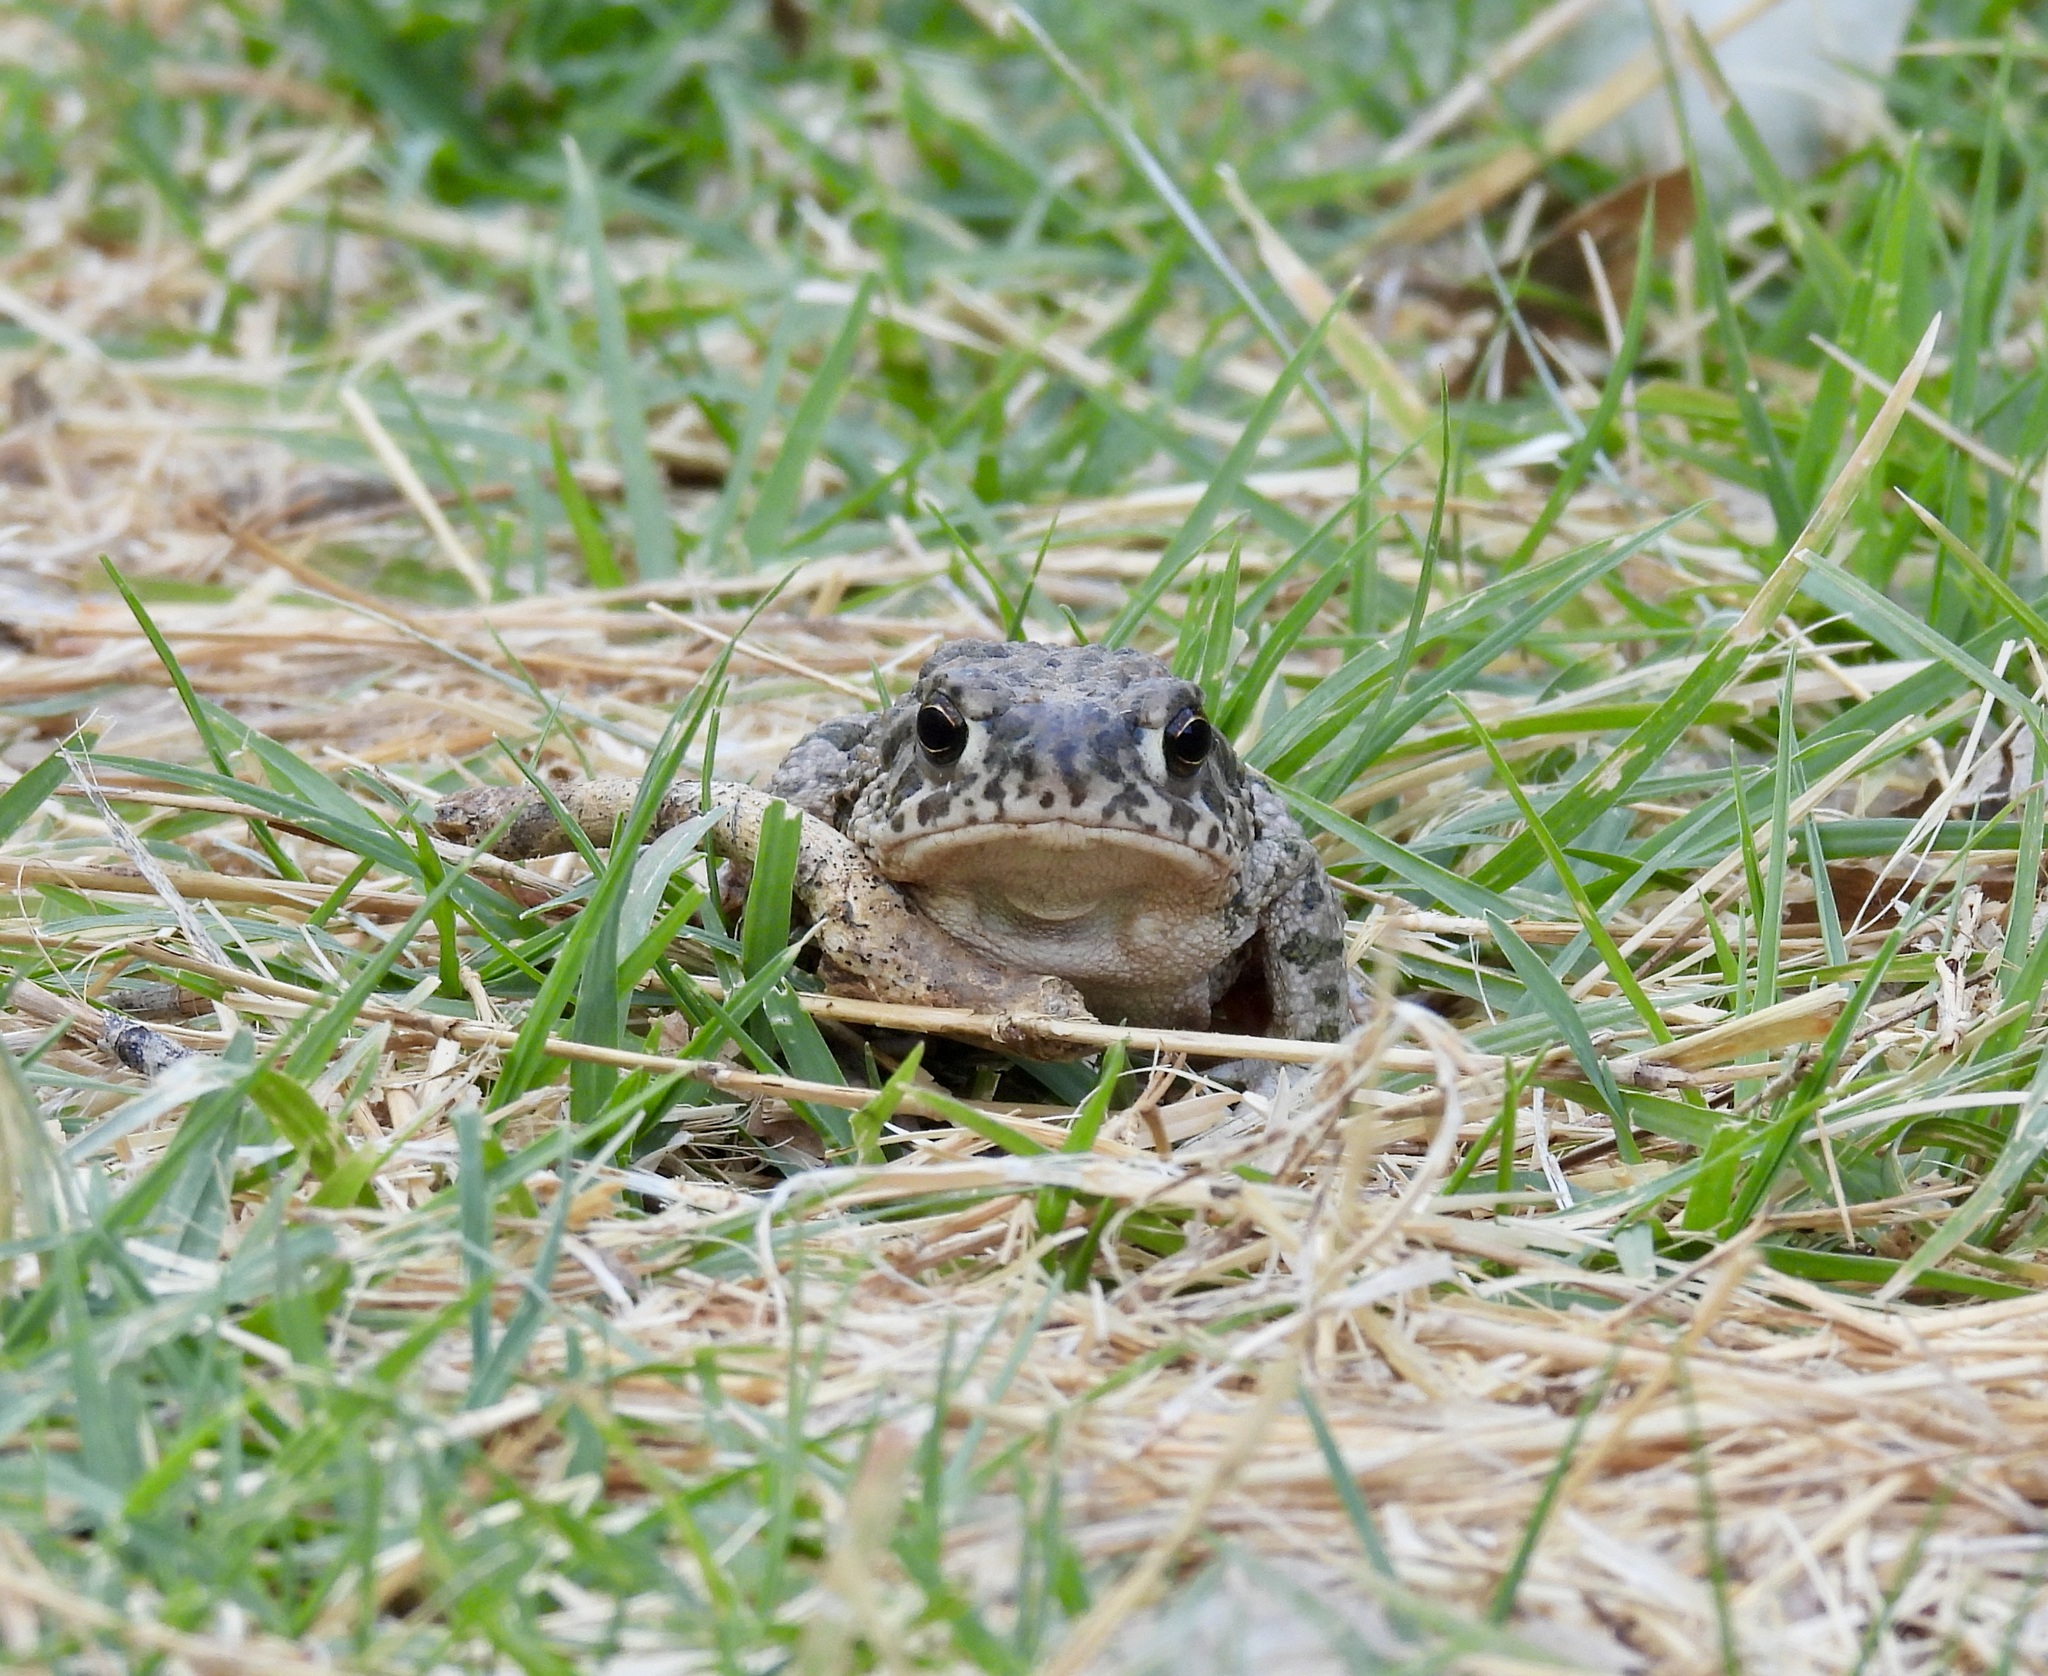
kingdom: Animalia
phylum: Chordata
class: Amphibia
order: Anura
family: Bufonidae
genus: Anaxyrus
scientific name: Anaxyrus speciosus
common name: Texas toad
